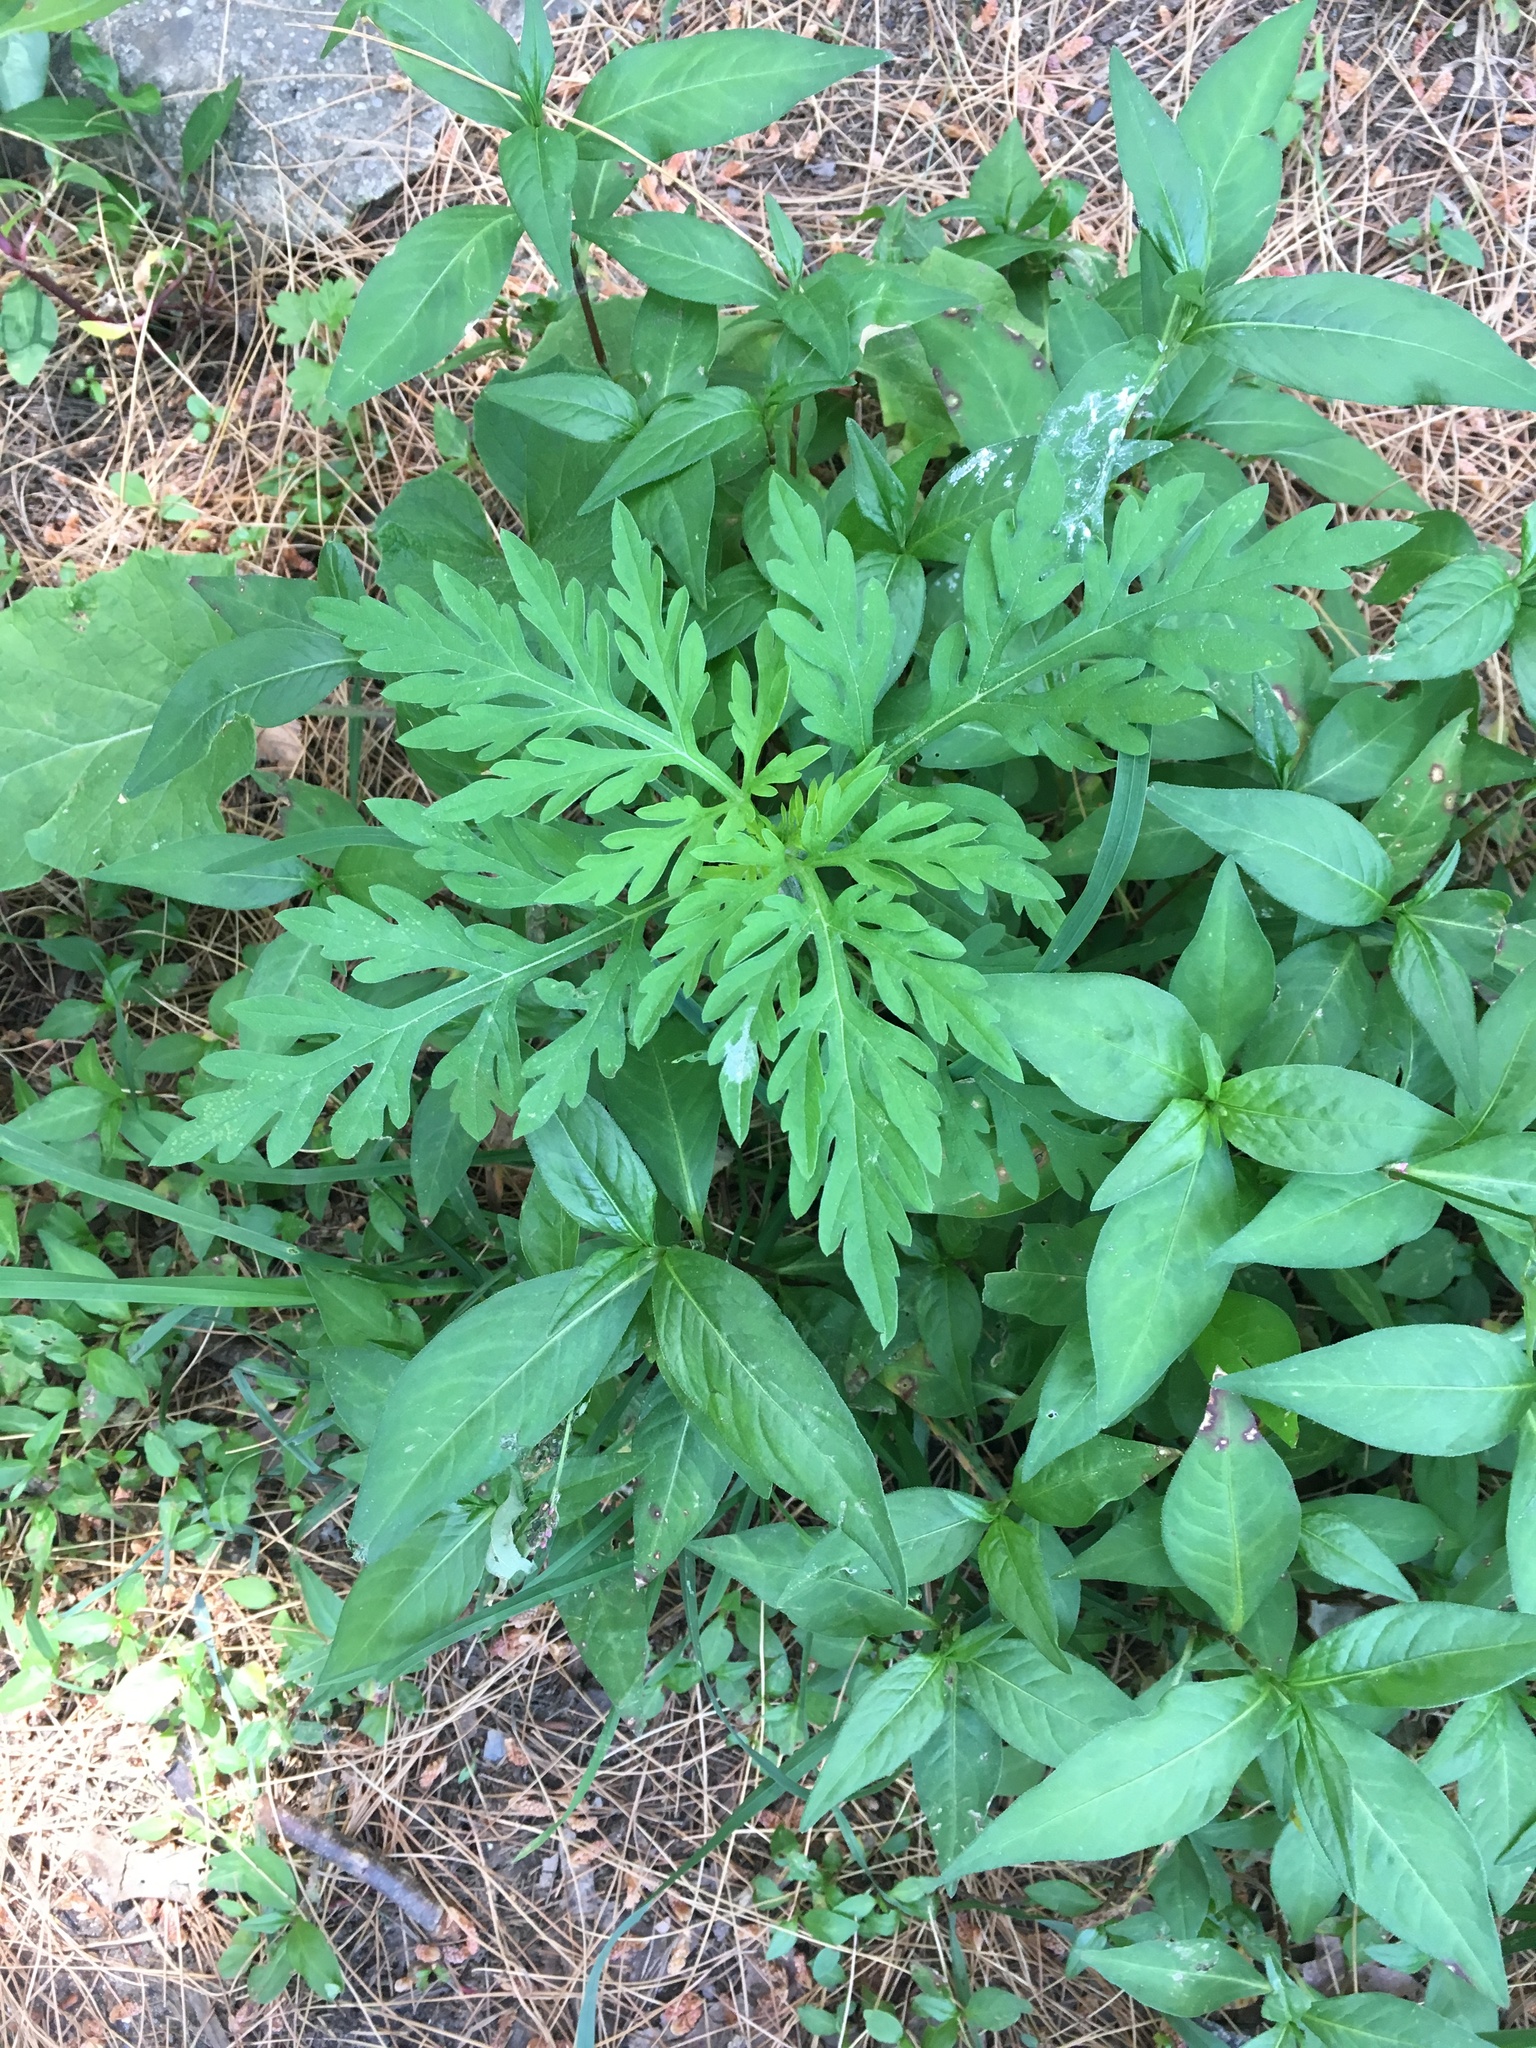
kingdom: Plantae
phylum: Tracheophyta
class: Magnoliopsida
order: Asterales
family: Asteraceae
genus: Ambrosia
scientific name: Ambrosia artemisiifolia
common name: Annual ragweed
